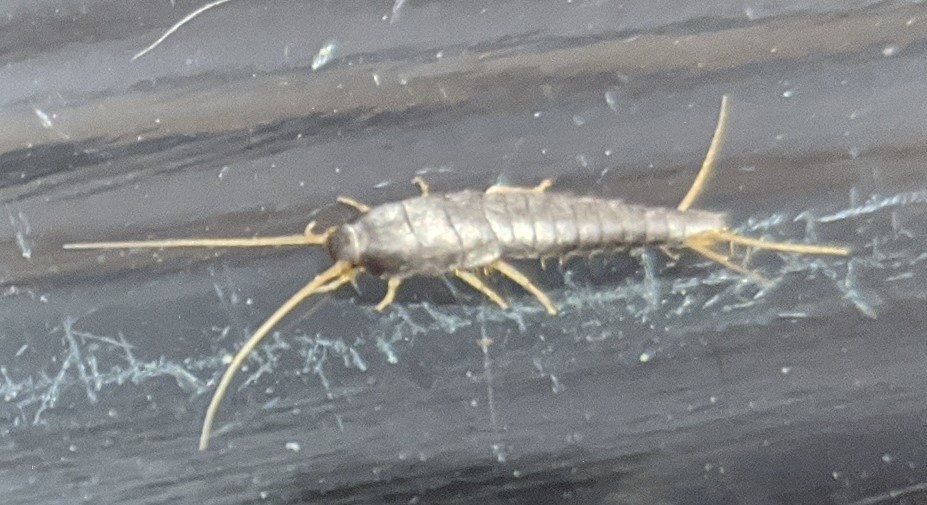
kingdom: Animalia
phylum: Arthropoda
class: Insecta
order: Zygentoma
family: Lepismatidae
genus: Lepisma
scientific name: Lepisma saccharinum
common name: Silverfish
